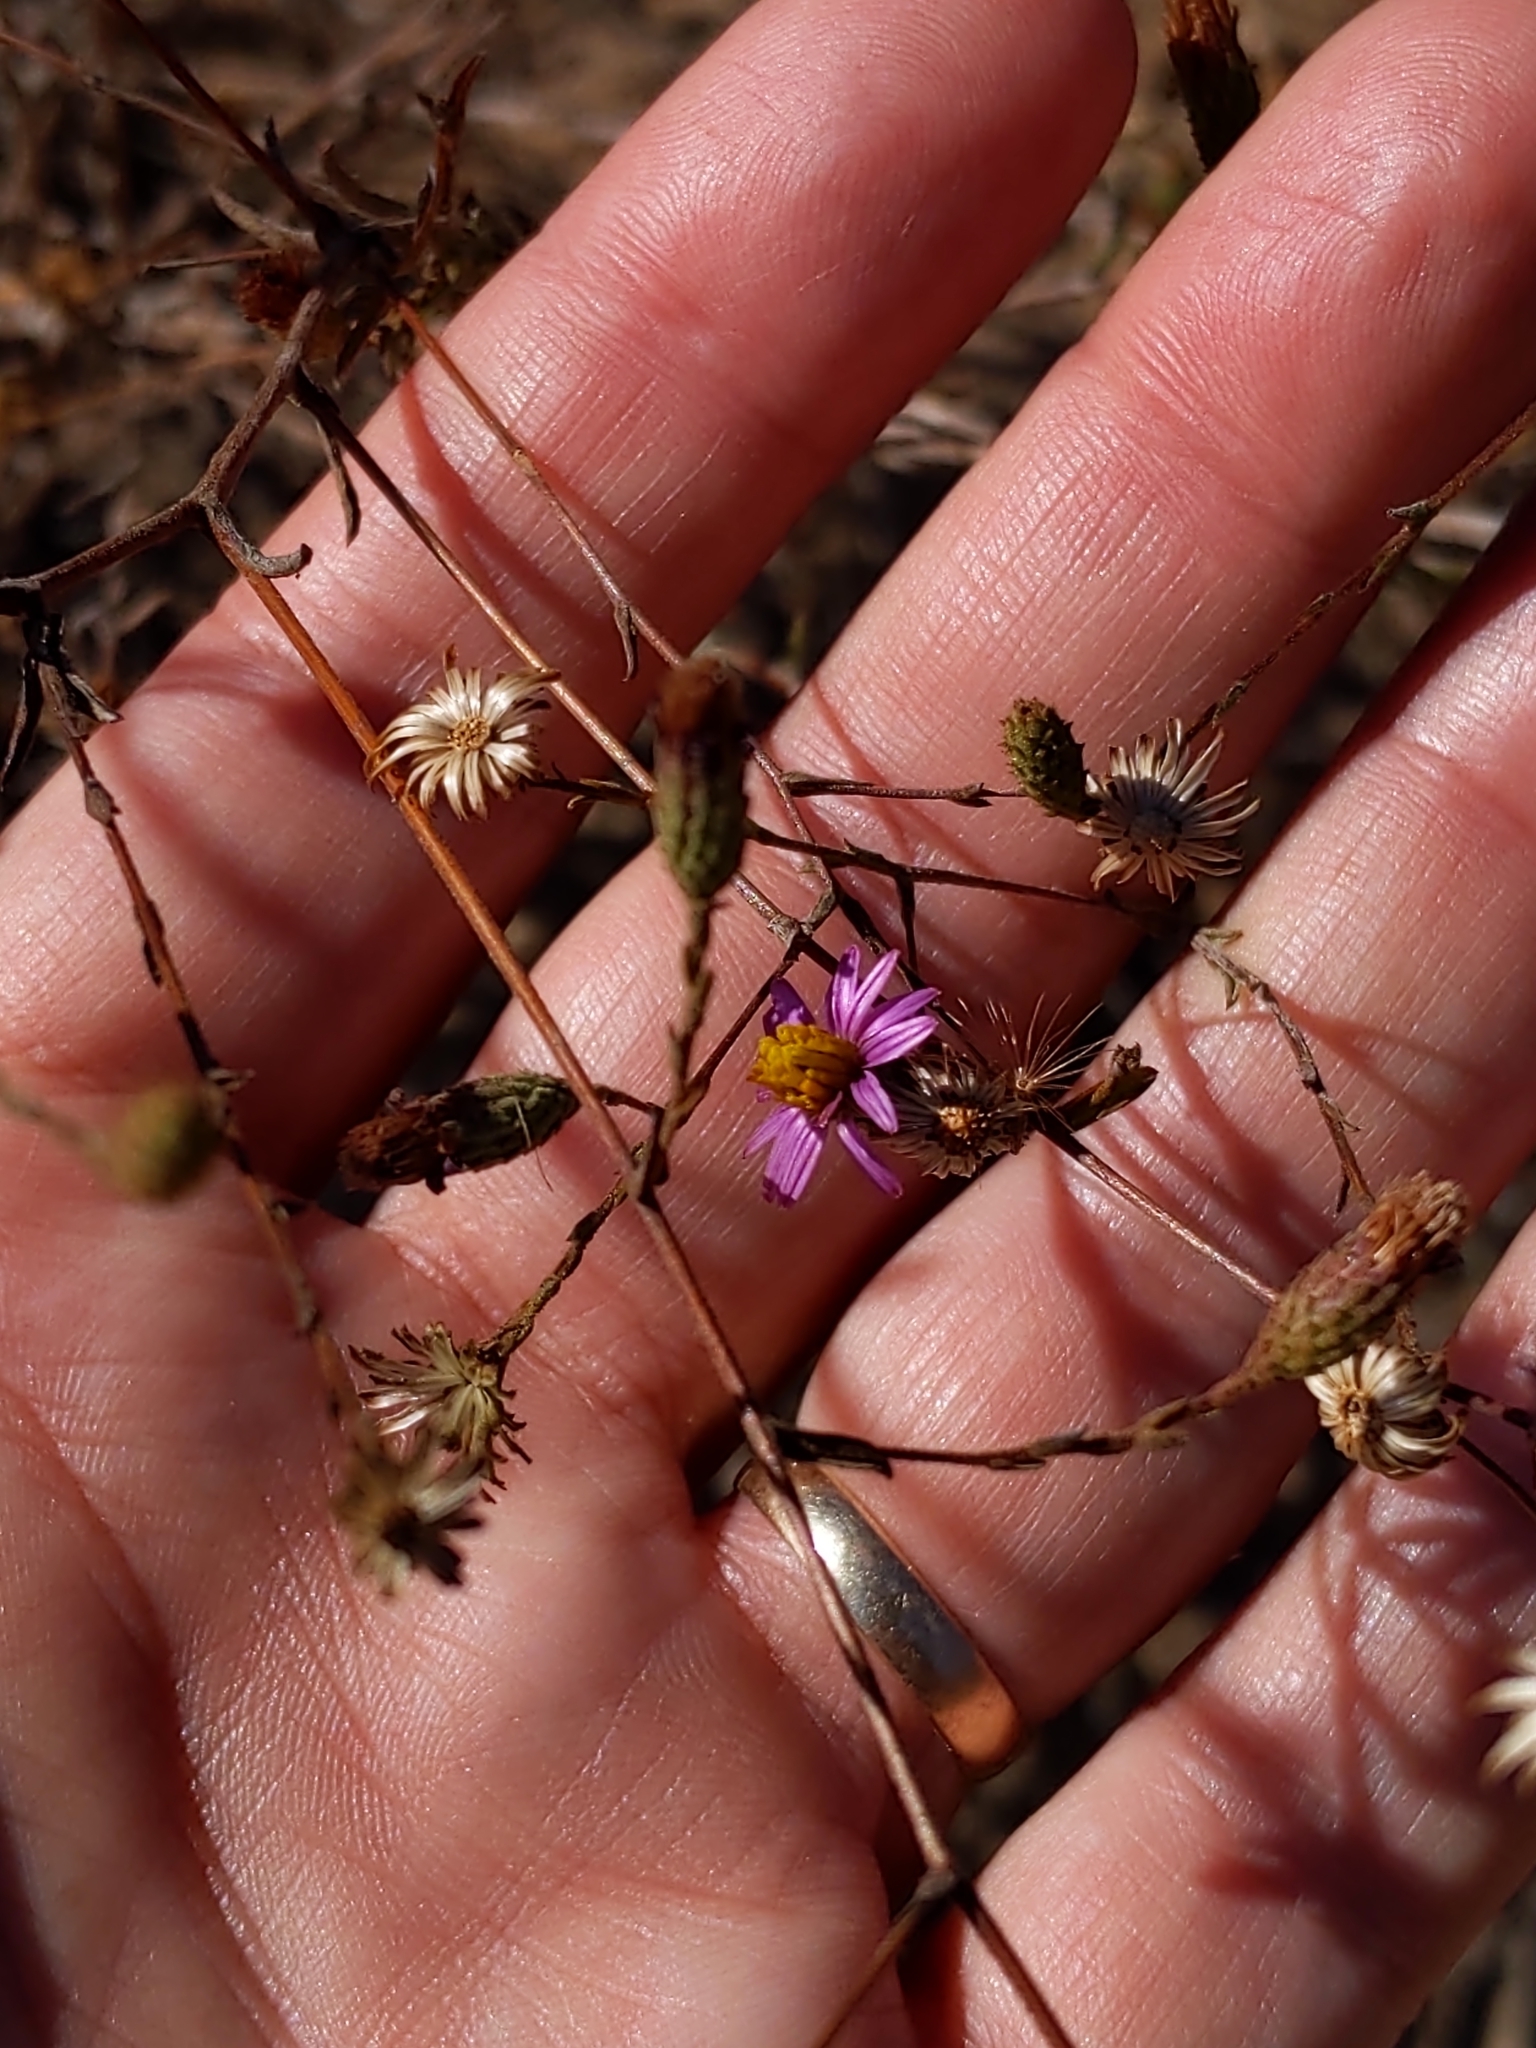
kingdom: Plantae
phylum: Tracheophyta
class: Magnoliopsida
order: Asterales
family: Asteraceae
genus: Corethrogyne
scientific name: Corethrogyne filaginifolia
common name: Sand-aster
